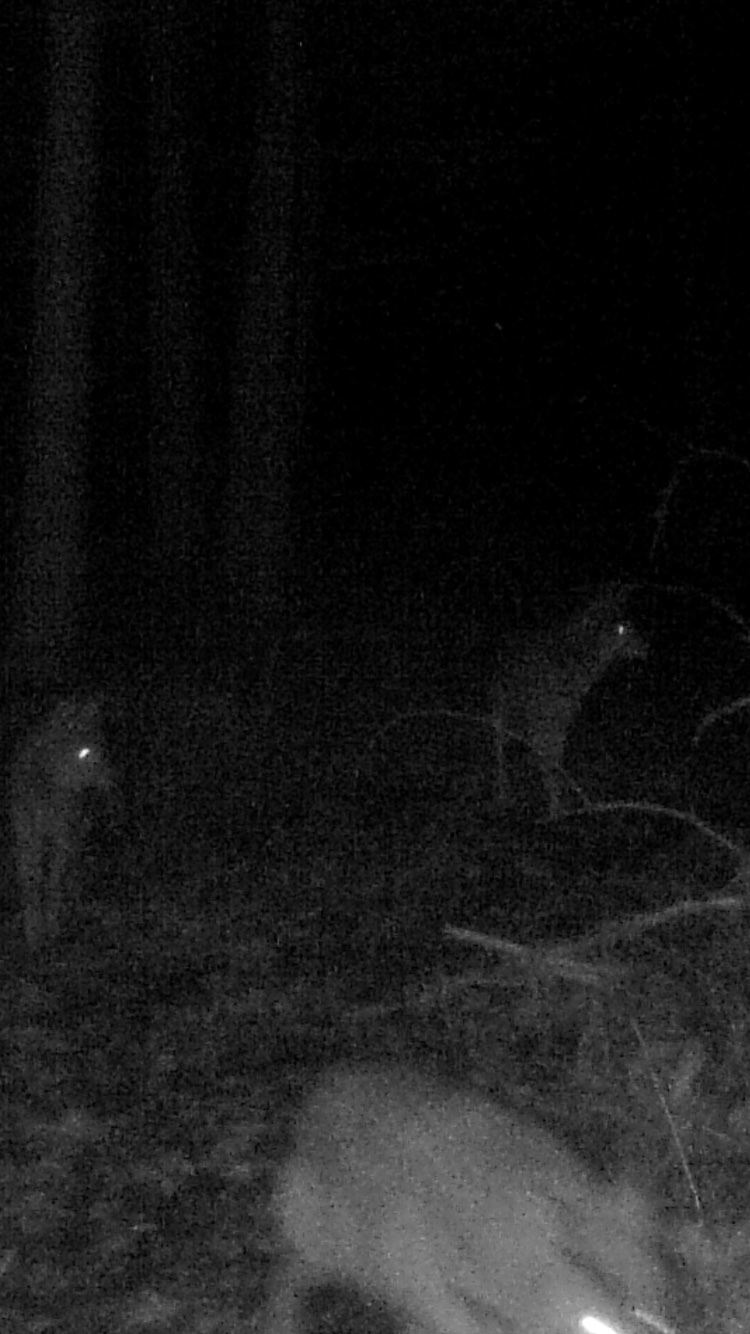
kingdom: Animalia
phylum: Chordata
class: Mammalia
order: Carnivora
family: Canidae
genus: Canis
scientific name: Canis latrans
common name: Coyote
